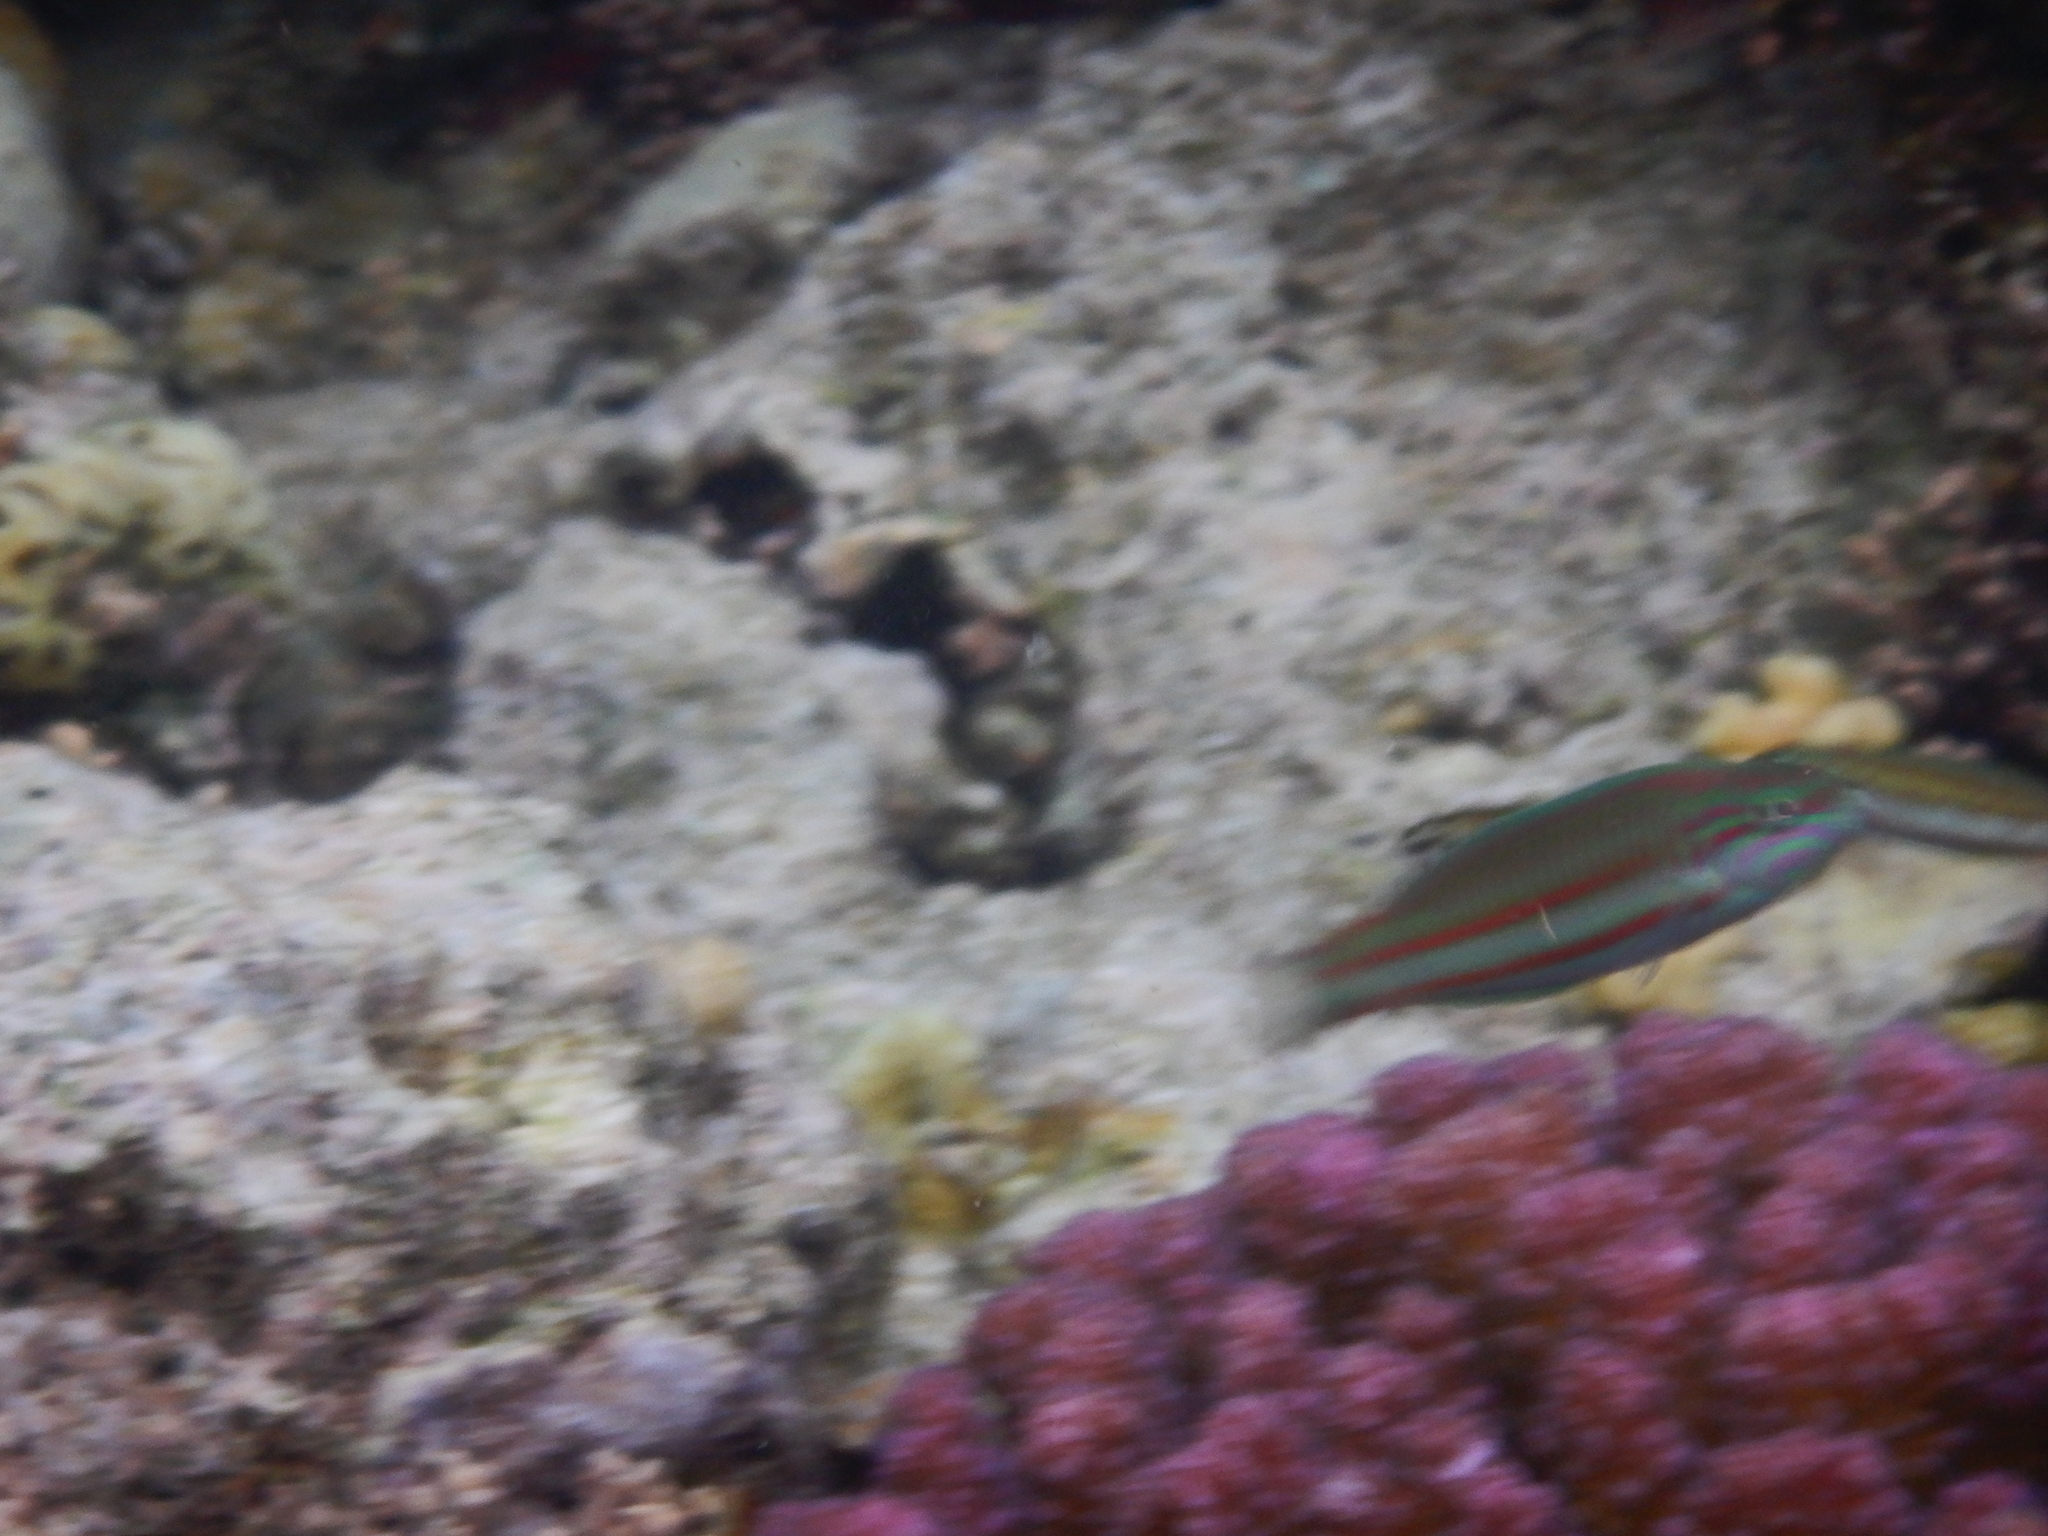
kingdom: Animalia
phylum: Chordata
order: Perciformes
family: Labridae
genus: Thalassoma
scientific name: Thalassoma rueppellii
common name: Klunzinger's wrasse
